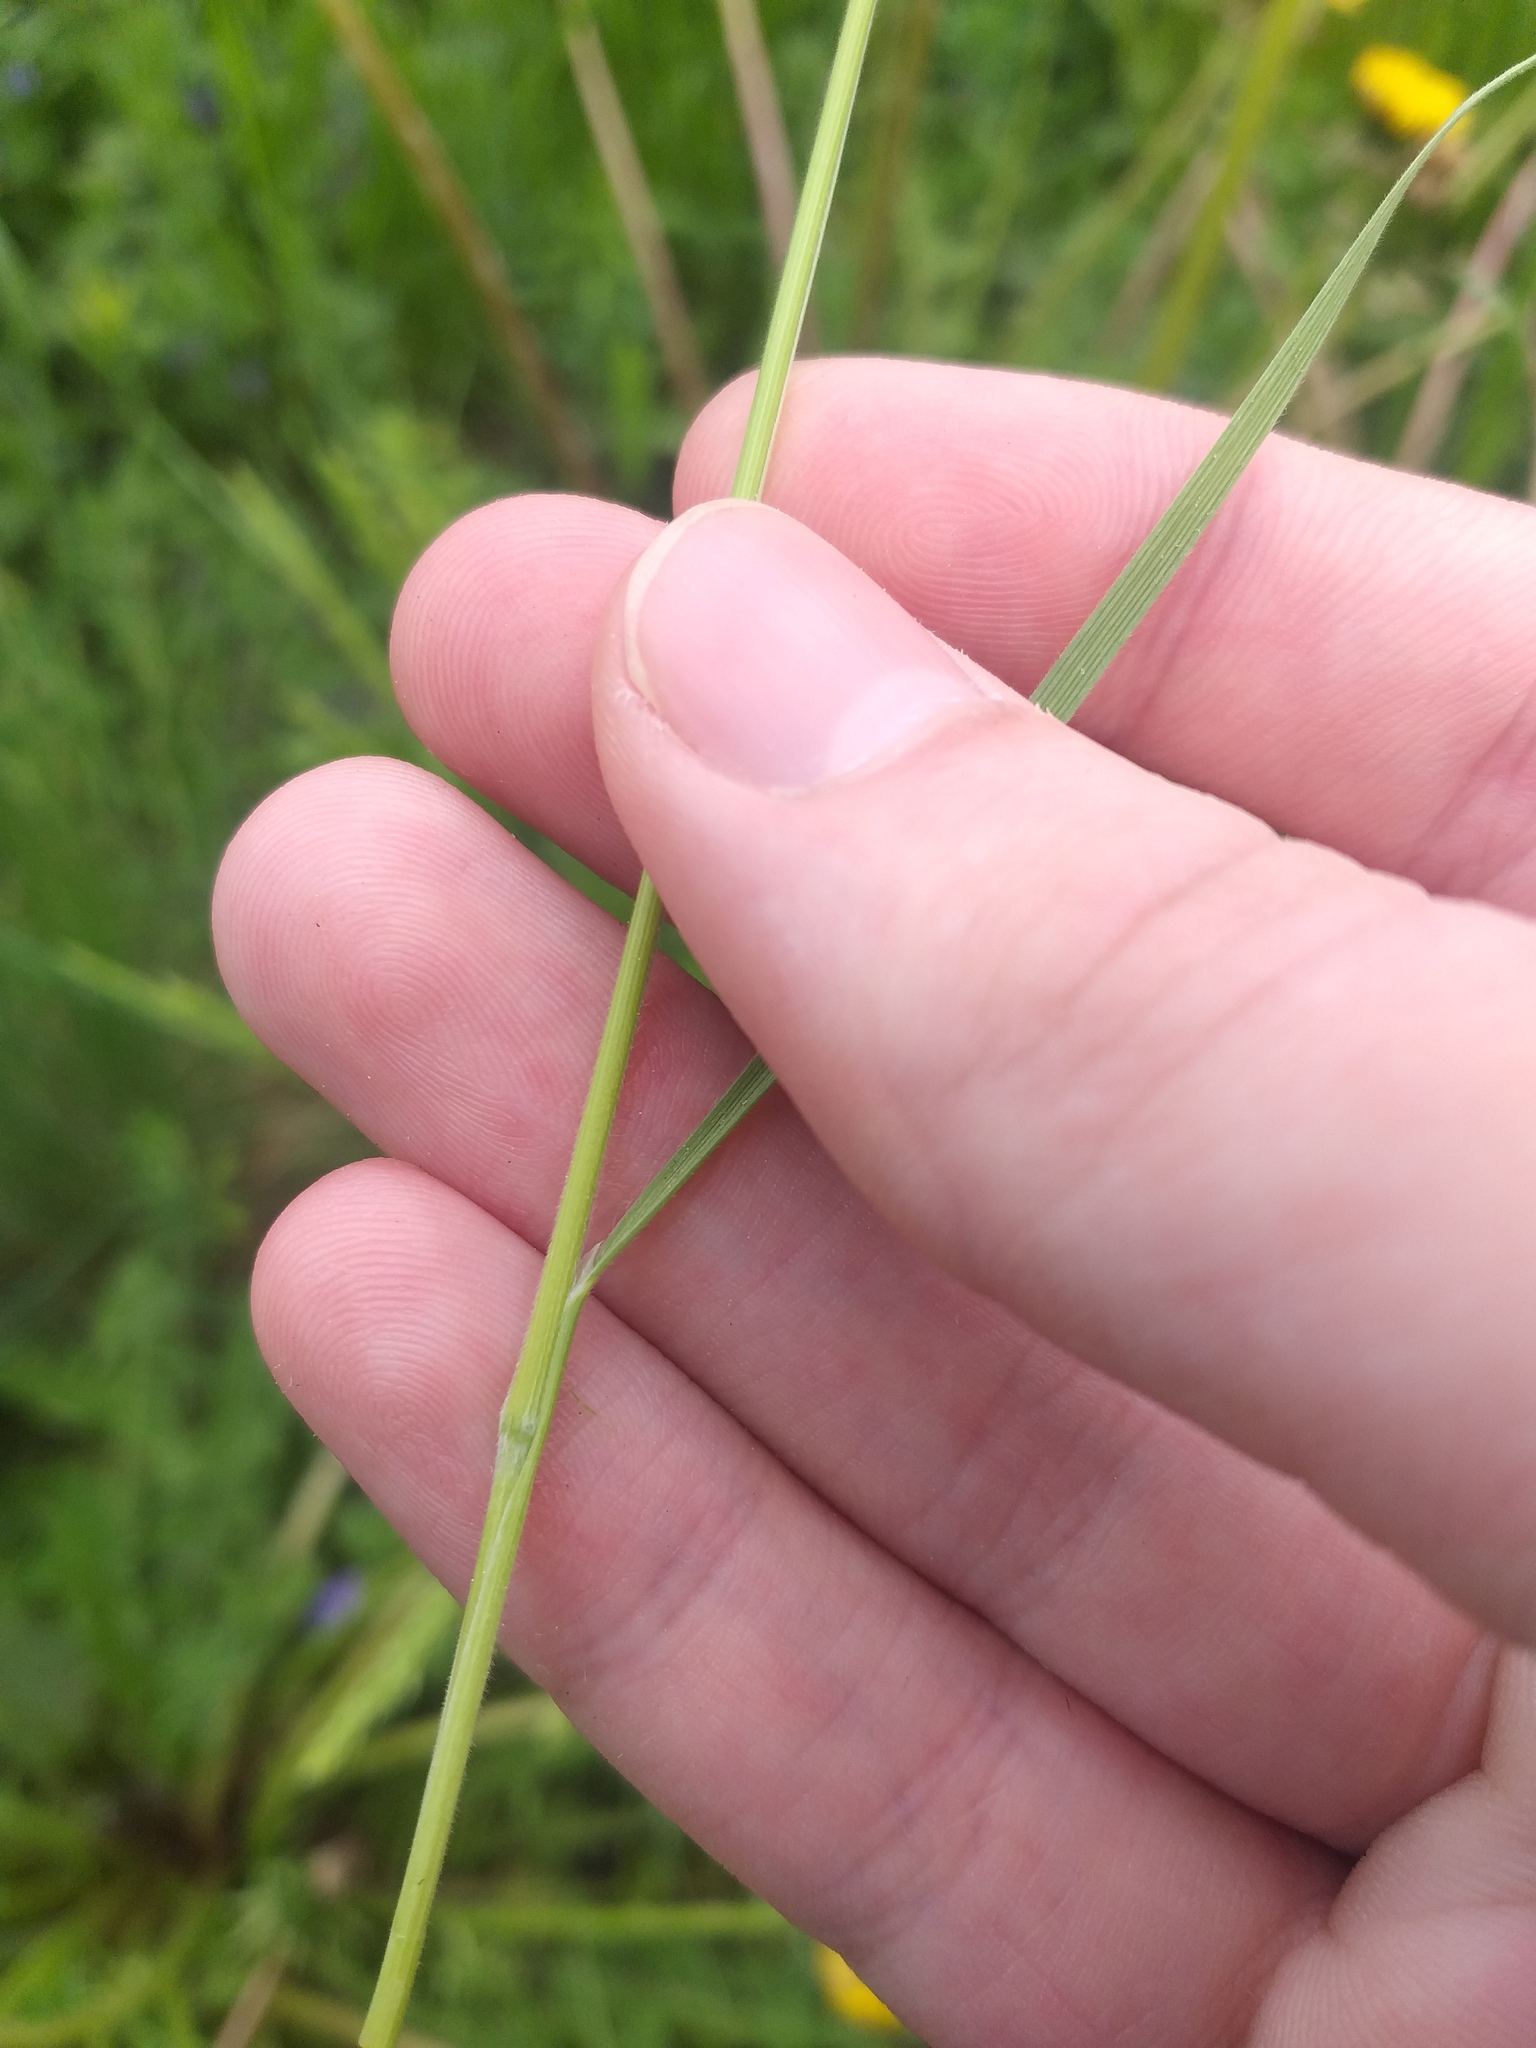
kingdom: Plantae
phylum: Tracheophyta
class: Liliopsida
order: Poales
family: Poaceae
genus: Koeleria
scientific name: Koeleria macrantha
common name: Crested hair-grass
